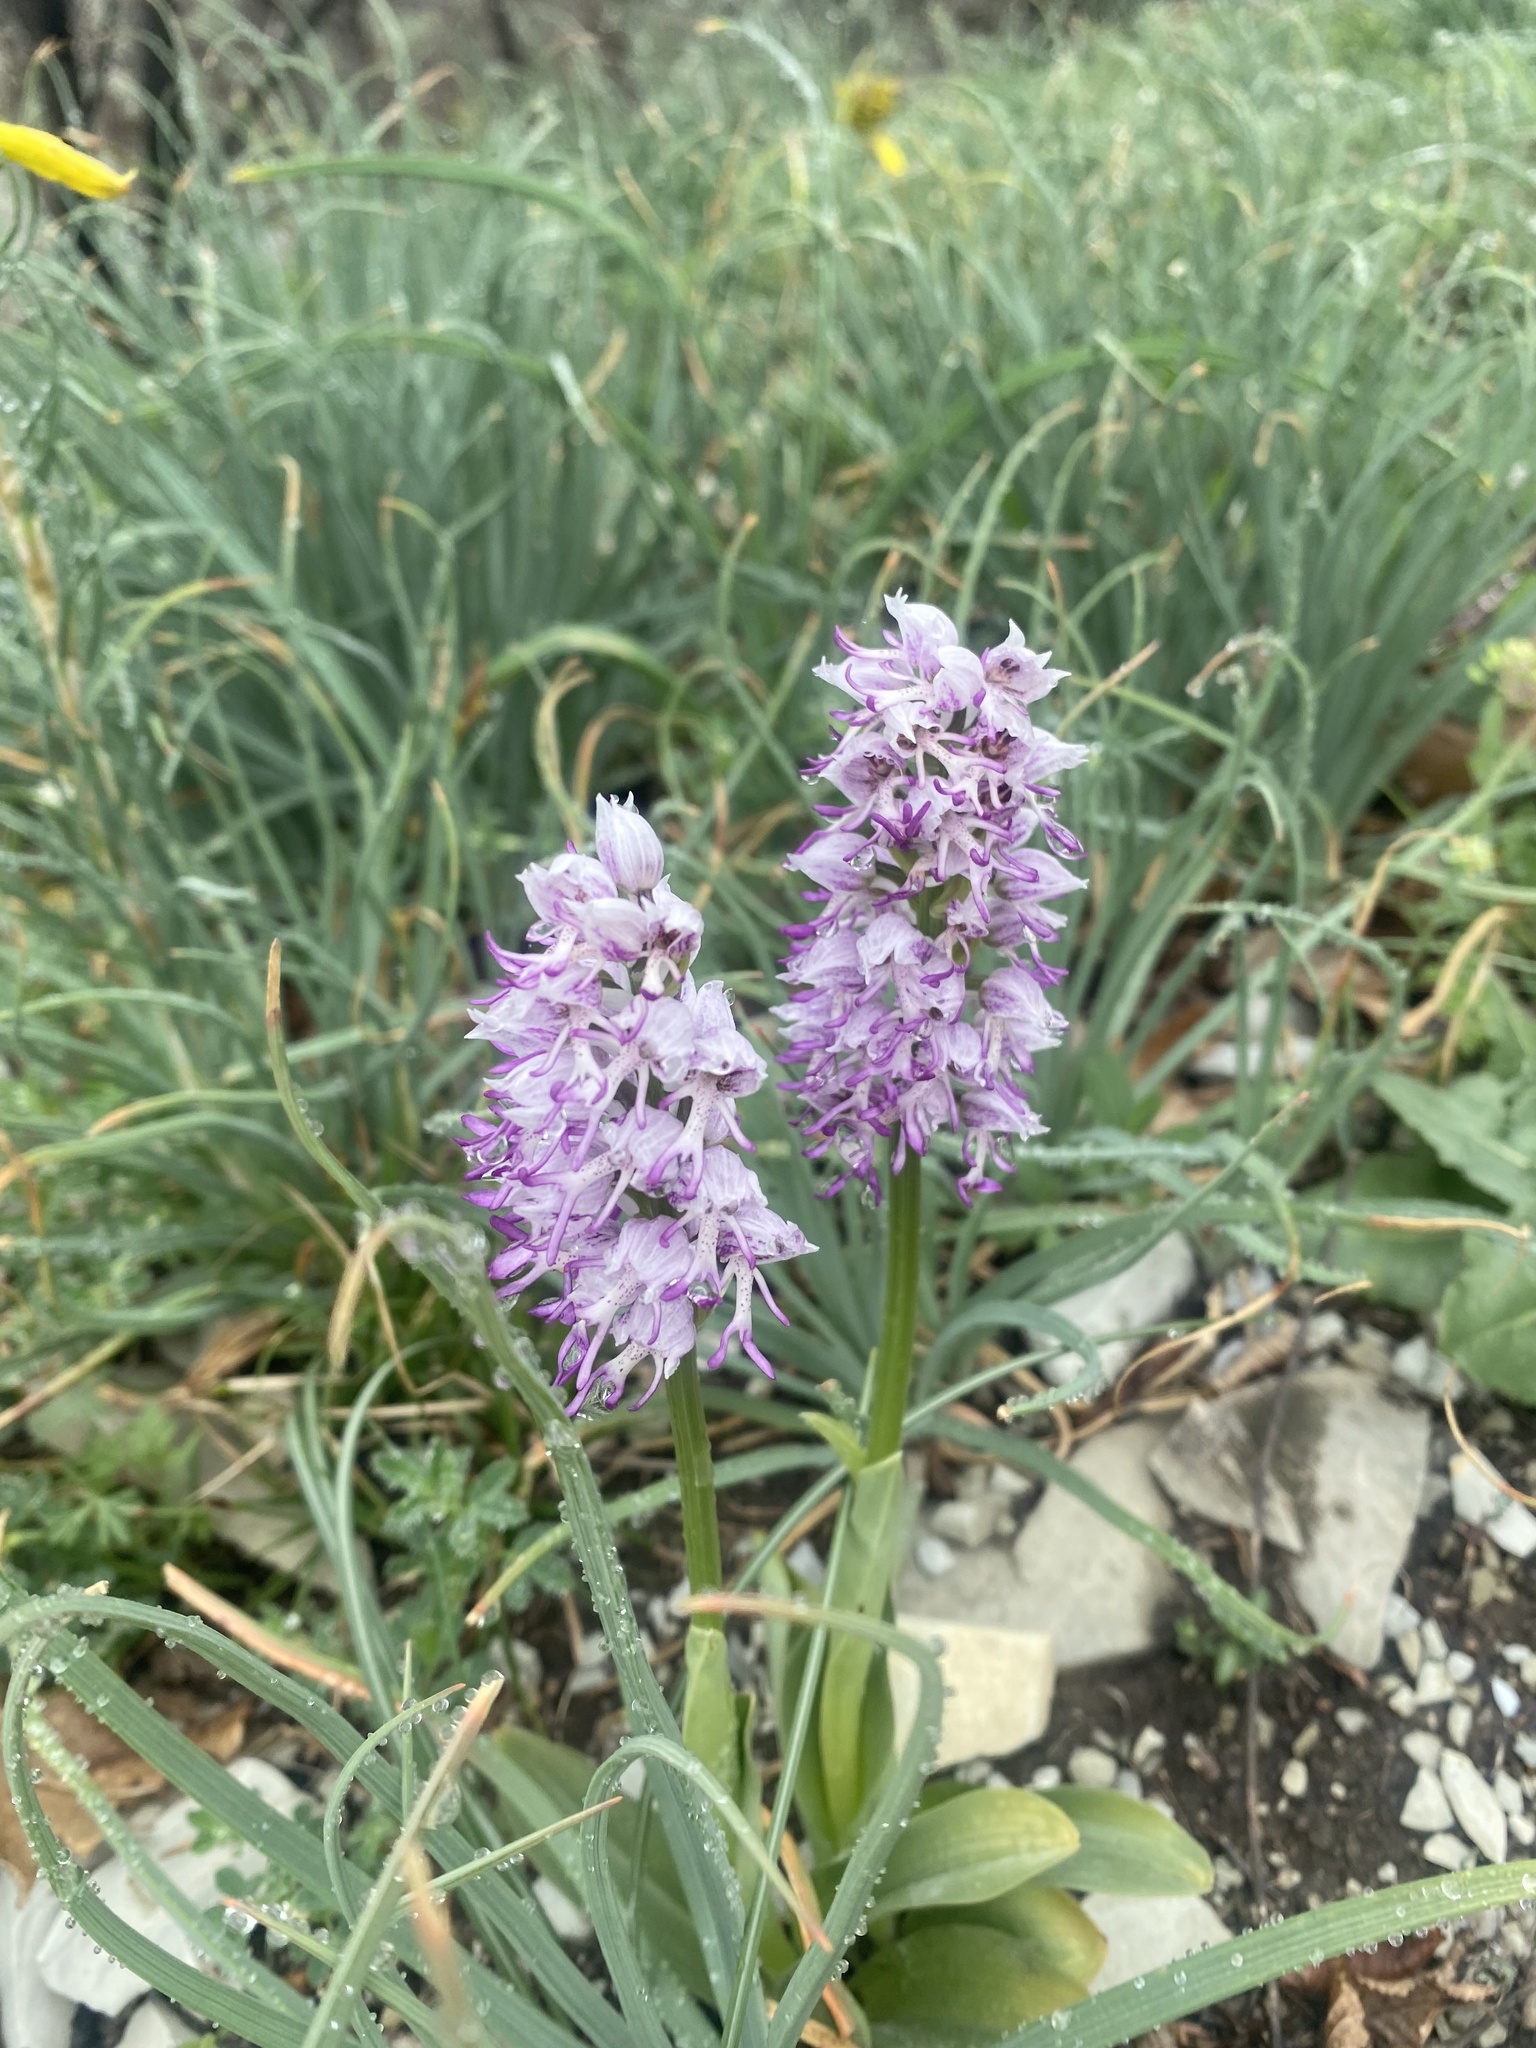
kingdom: Plantae
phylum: Tracheophyta
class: Liliopsida
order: Asparagales
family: Orchidaceae
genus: Orchis
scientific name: Orchis simia
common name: Monkey orchid
